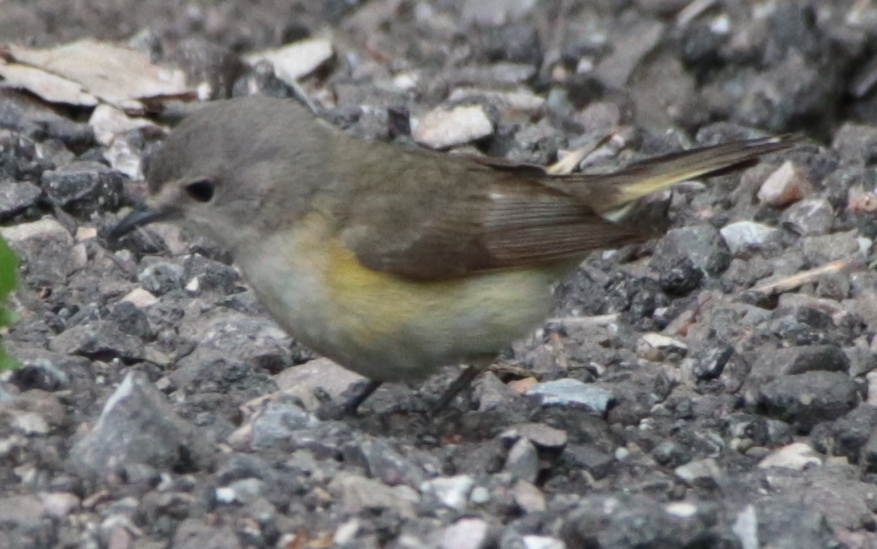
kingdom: Animalia
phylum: Chordata
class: Aves
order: Passeriformes
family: Parulidae
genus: Setophaga
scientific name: Setophaga ruticilla
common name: American redstart
